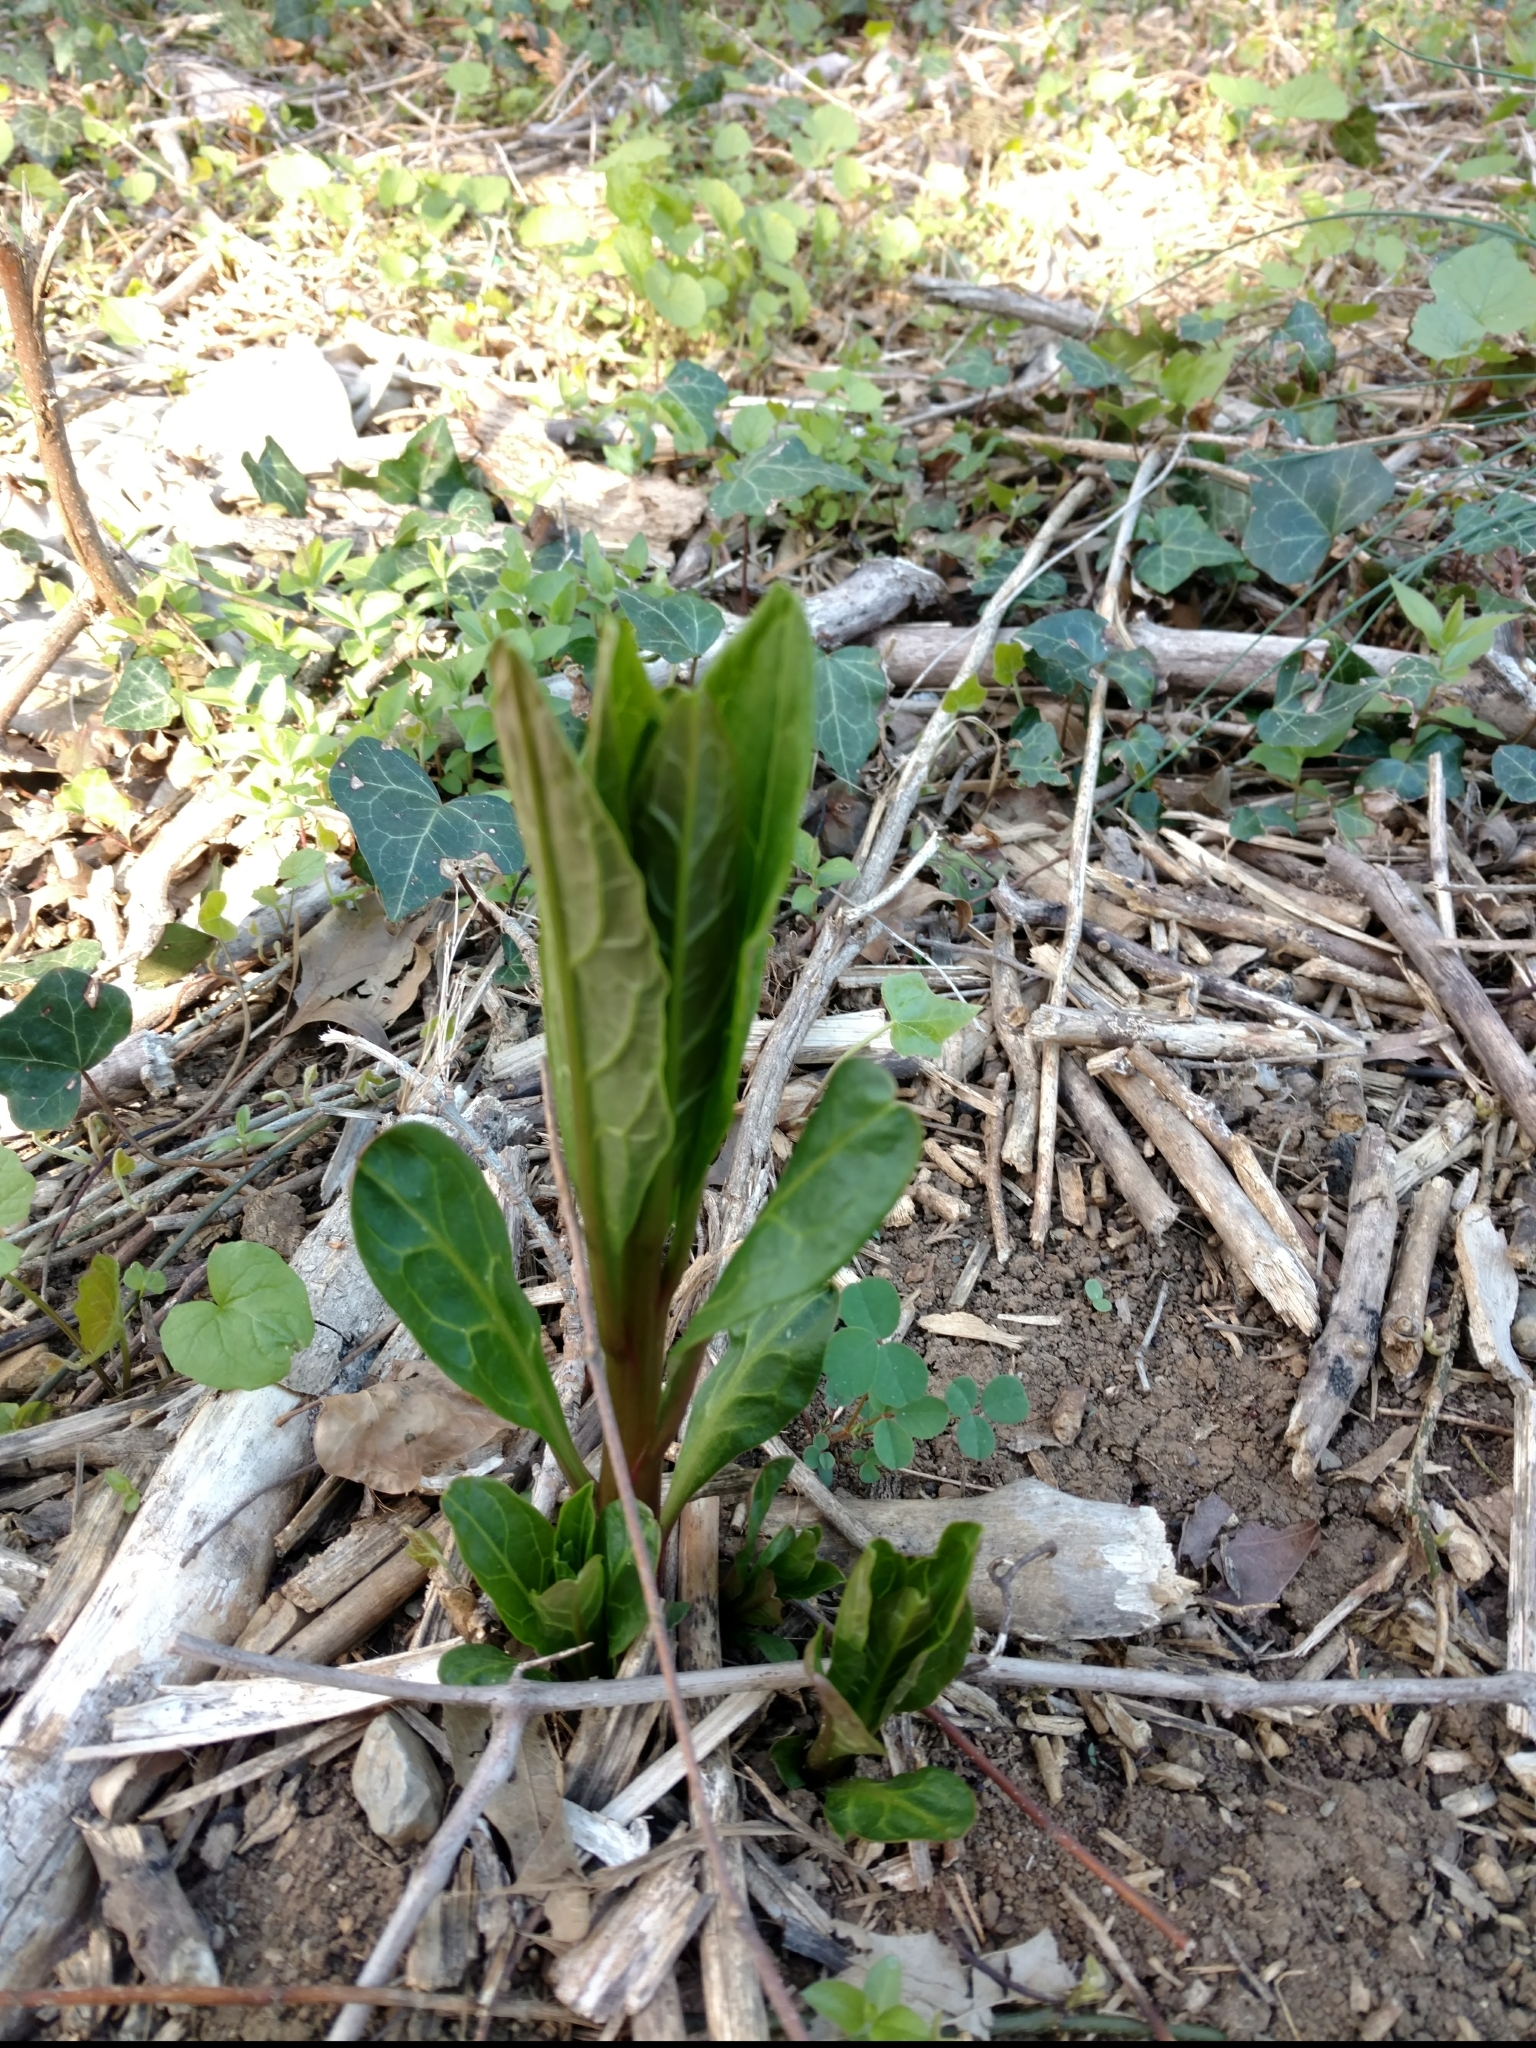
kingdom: Plantae
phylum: Tracheophyta
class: Magnoliopsida
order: Caryophyllales
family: Phytolaccaceae
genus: Phytolacca
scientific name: Phytolacca americana
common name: American pokeweed
